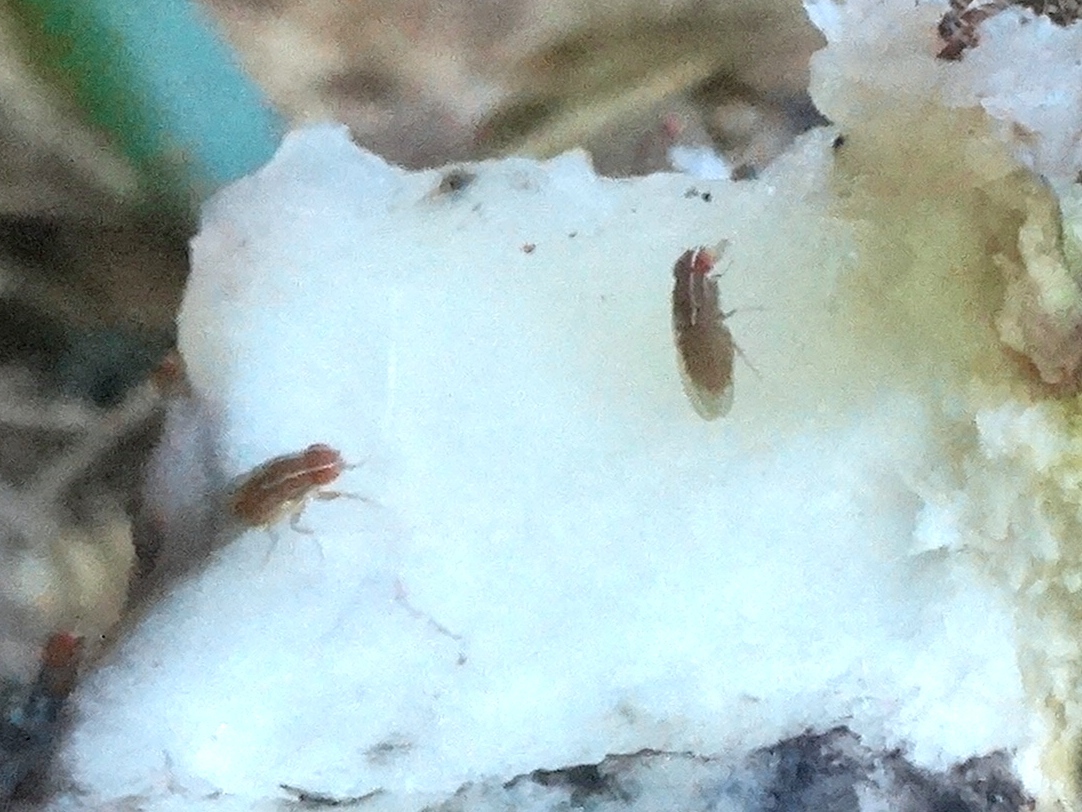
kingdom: Animalia
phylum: Arthropoda
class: Insecta
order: Diptera
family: Drosophilidae
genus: Zaprionus
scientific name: Zaprionus indianus
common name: African fig fly
